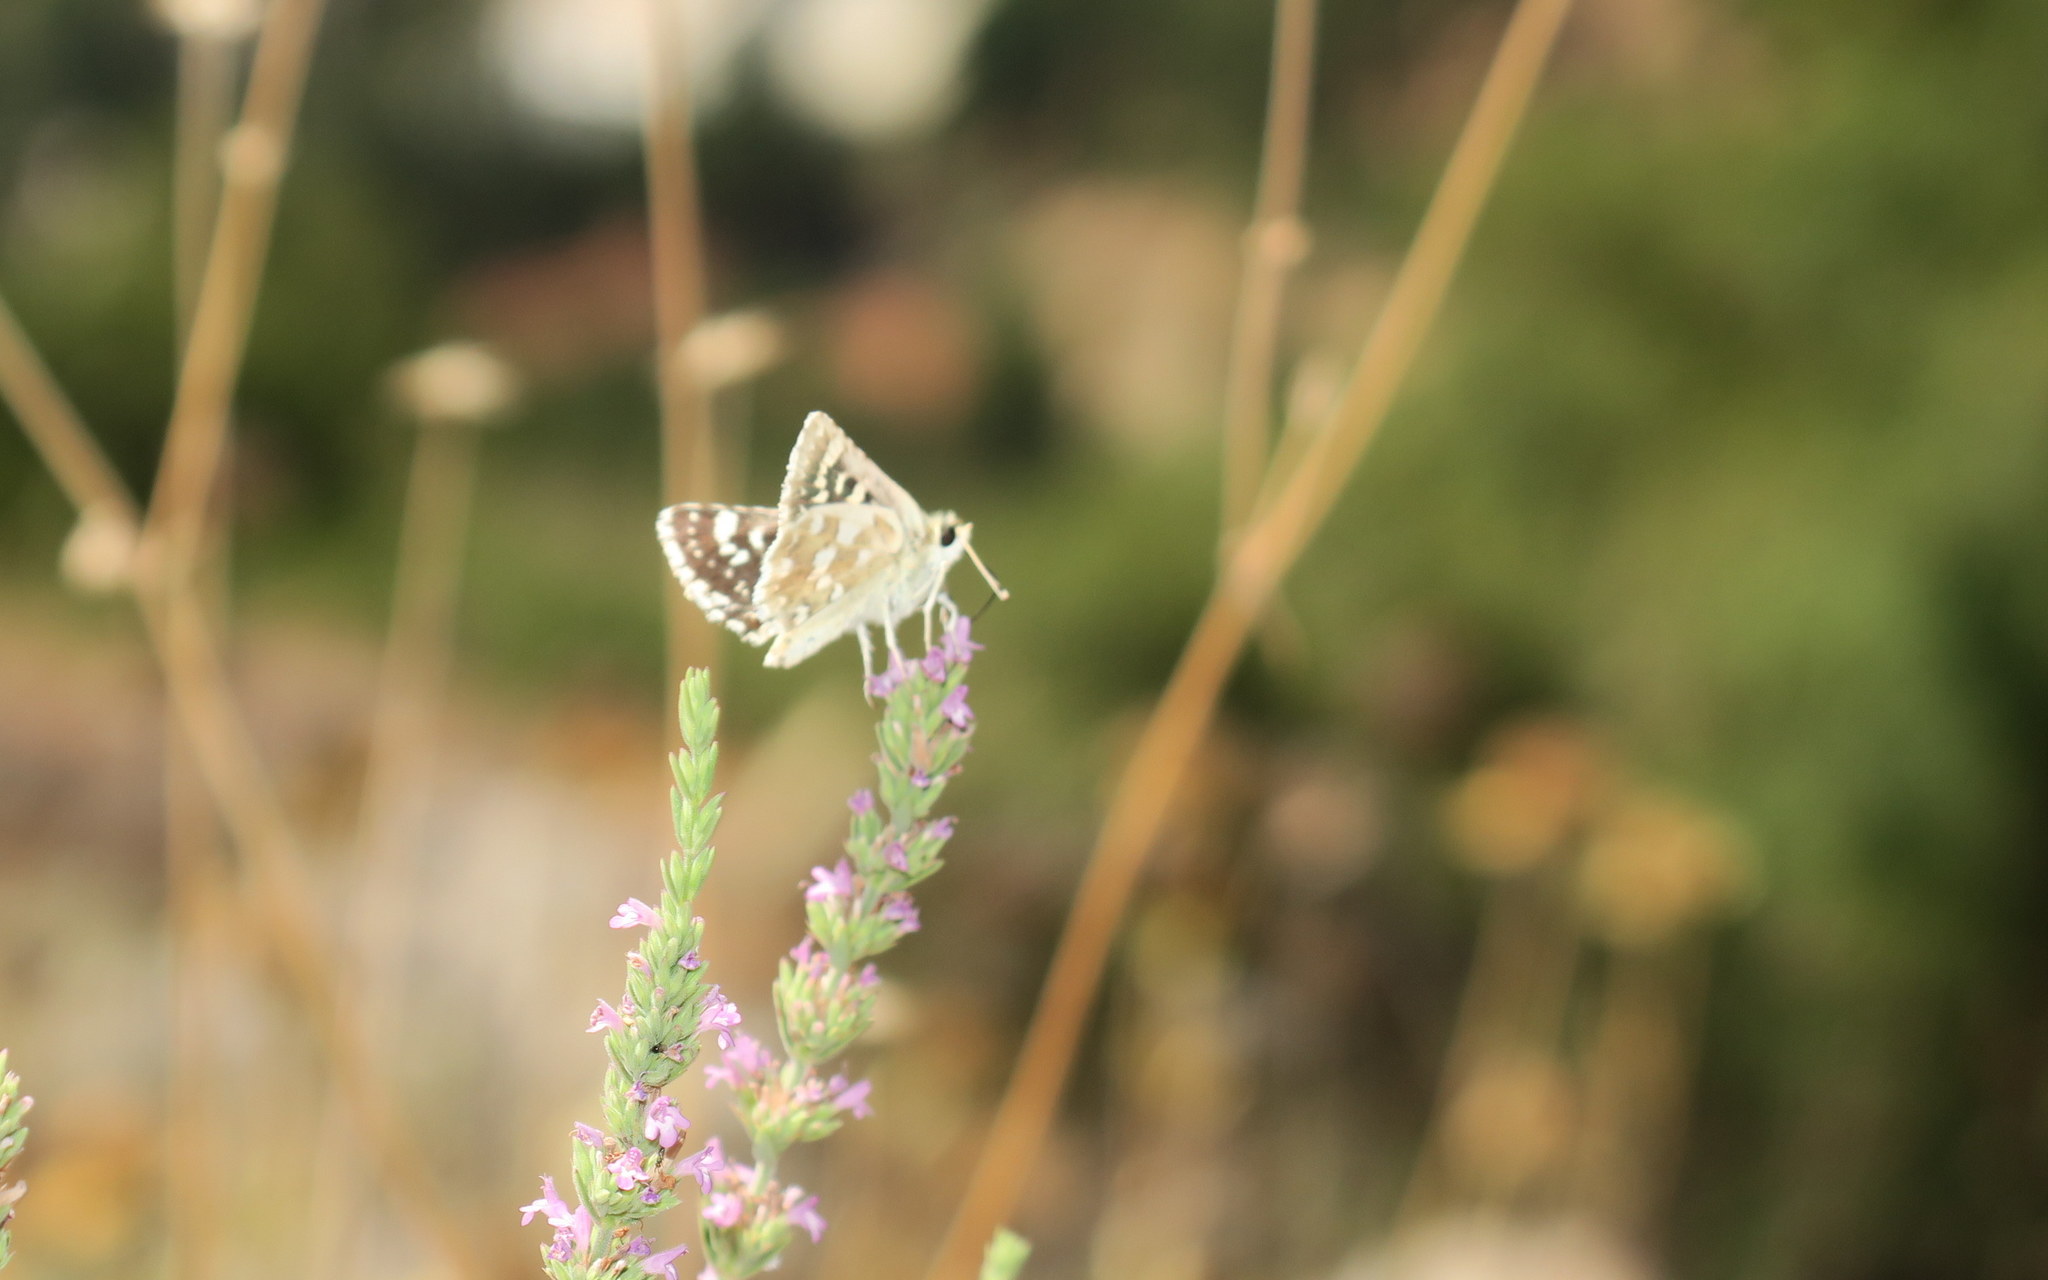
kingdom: Animalia
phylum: Arthropoda
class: Insecta
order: Lepidoptera
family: Hesperiidae
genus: Spialia
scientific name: Spialia phlomidis
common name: Persian skipper
